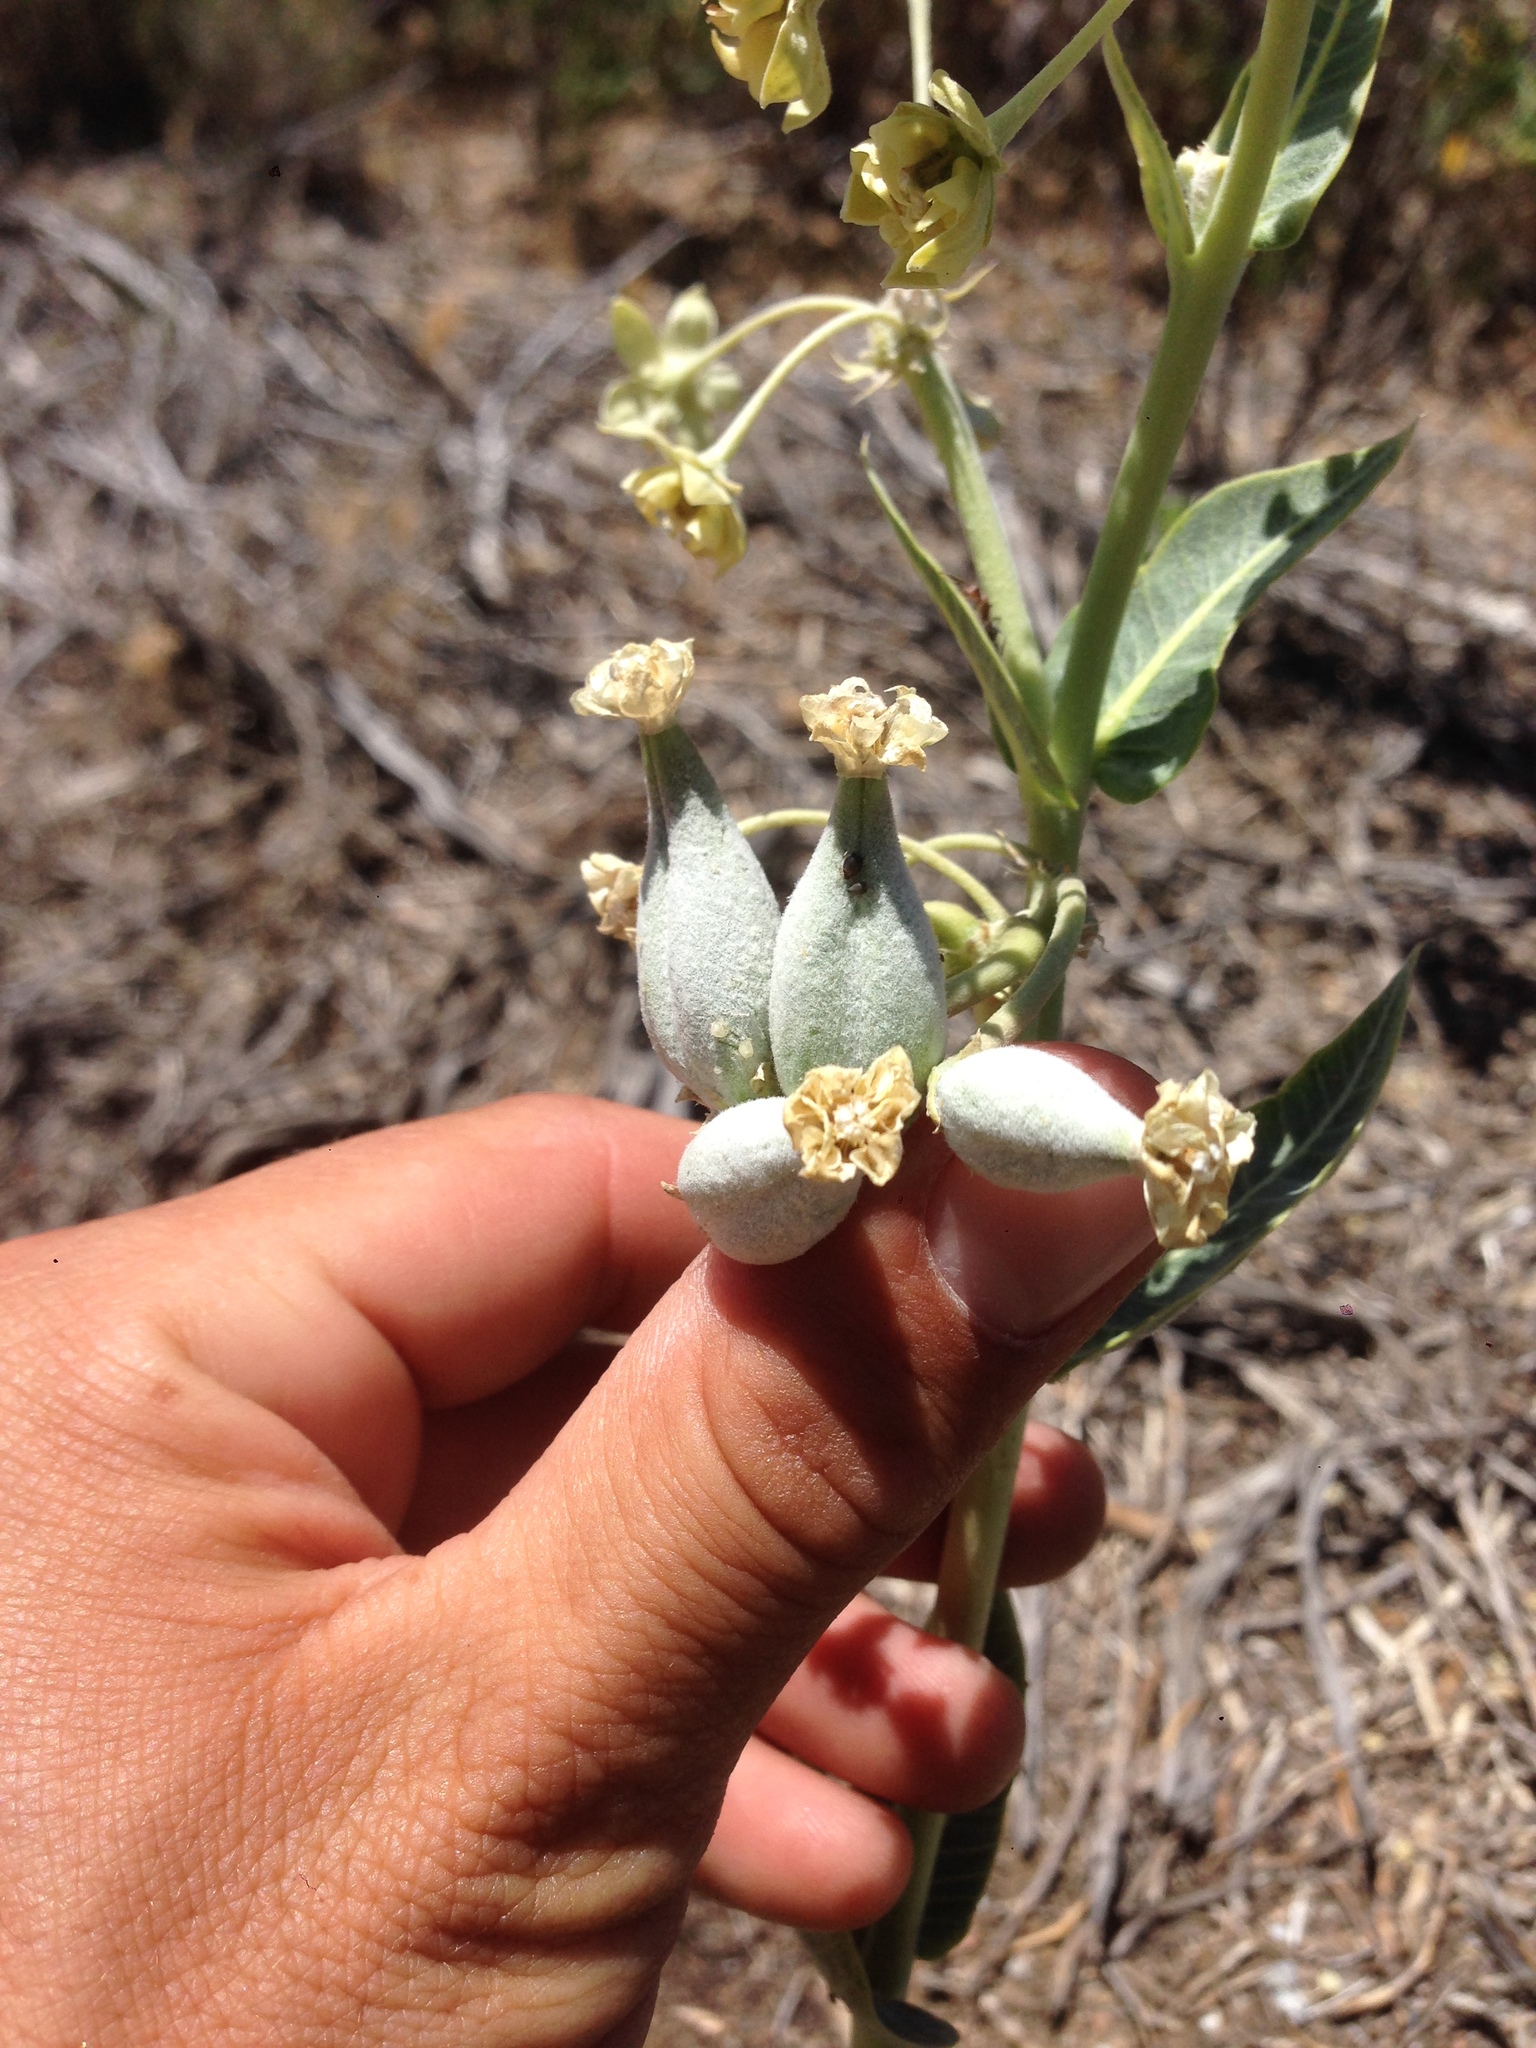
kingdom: Plantae
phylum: Tracheophyta
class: Magnoliopsida
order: Gentianales
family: Apocynaceae
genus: Asclepias
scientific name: Asclepias erosa
